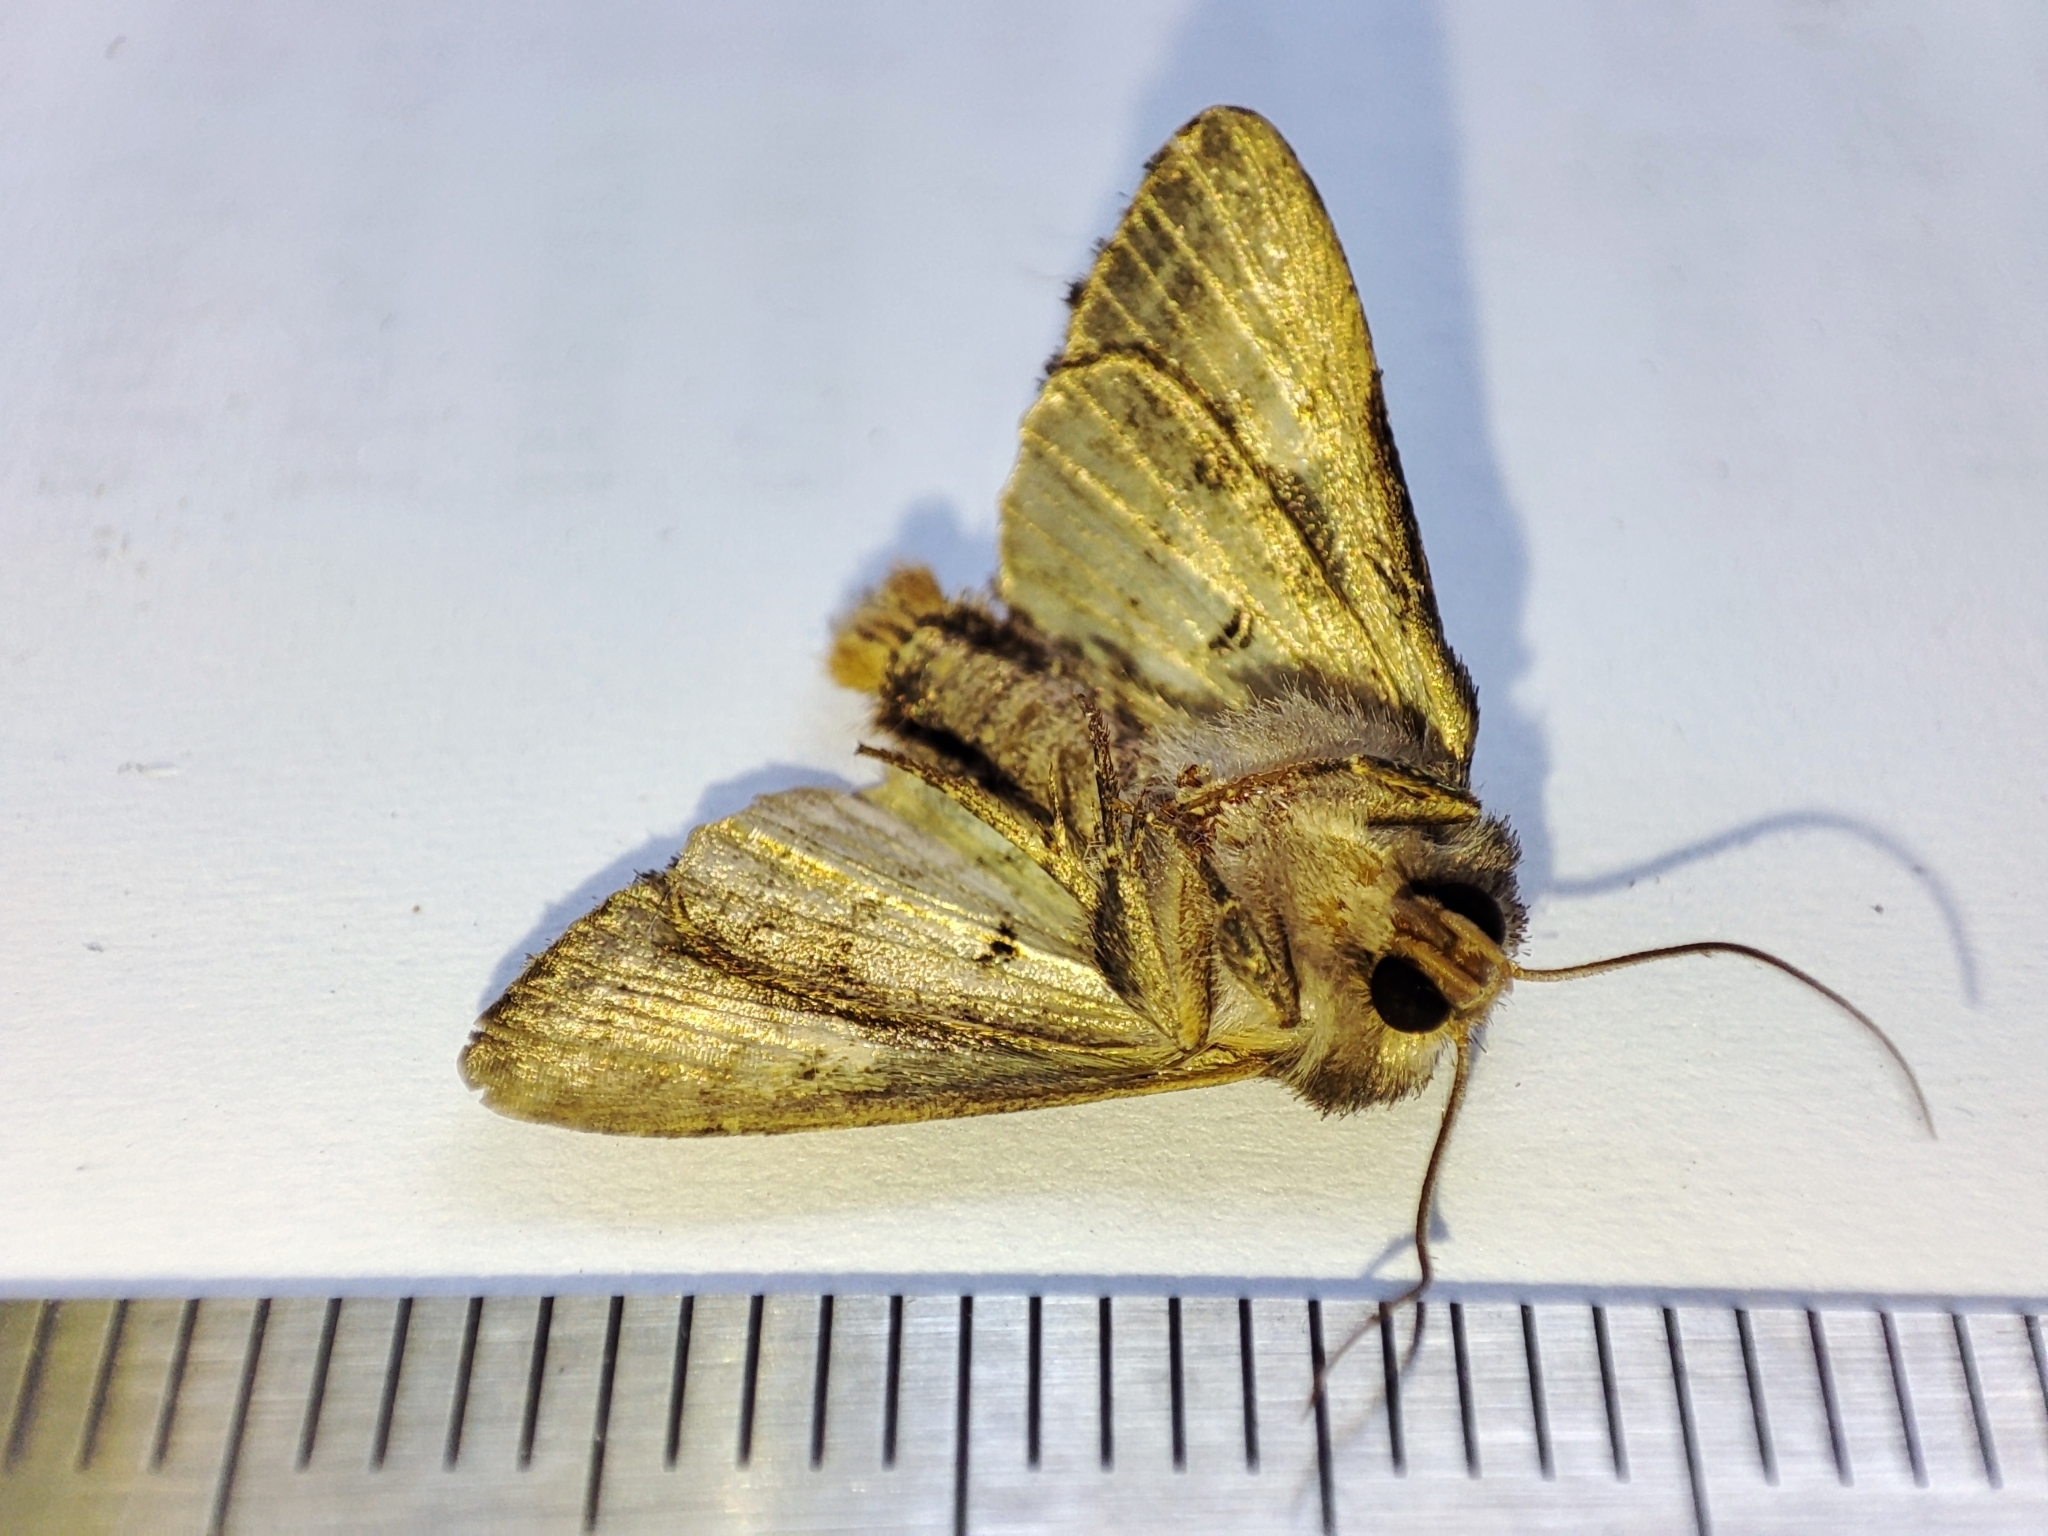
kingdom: Animalia
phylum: Arthropoda
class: Insecta
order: Lepidoptera
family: Noctuidae
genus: Euplexia
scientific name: Euplexia lucipara
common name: Small angle shades
